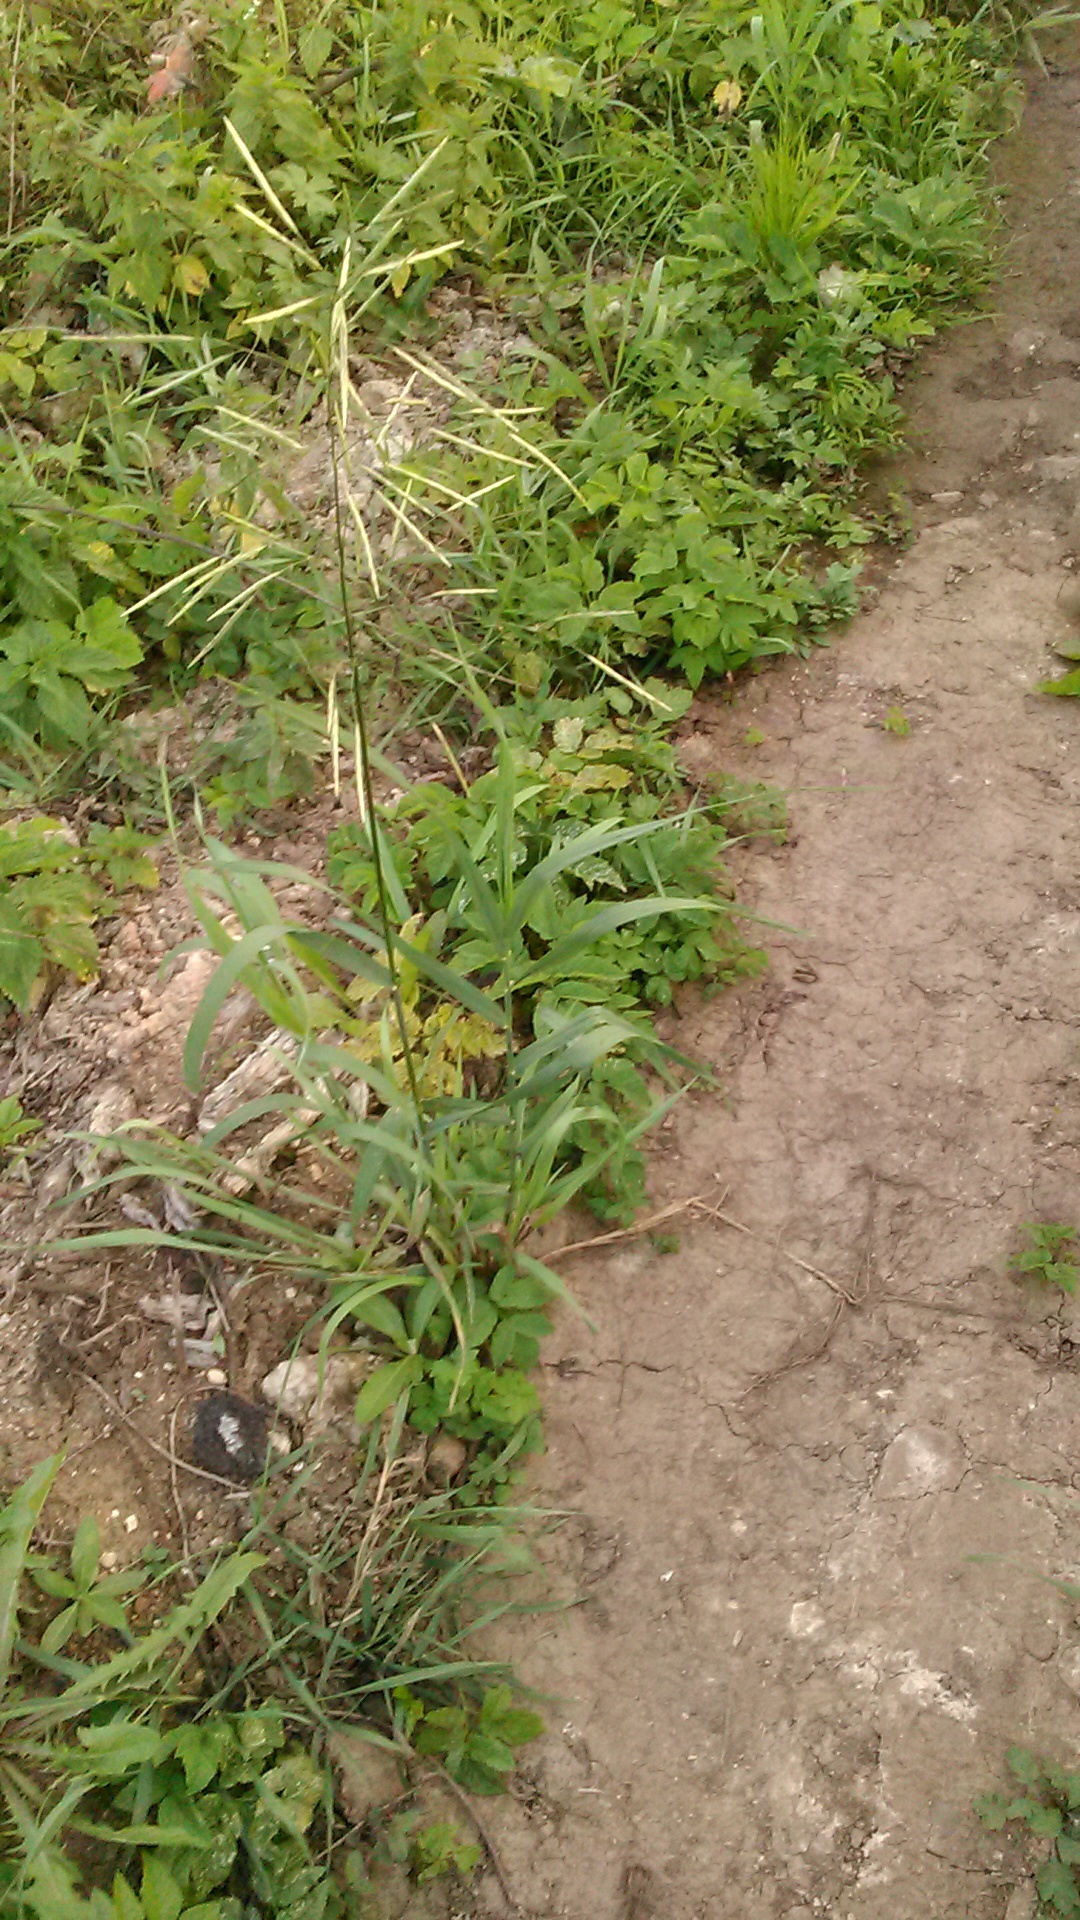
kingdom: Plantae
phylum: Tracheophyta
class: Liliopsida
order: Poales
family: Poaceae
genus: Bromus
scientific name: Bromus inermis
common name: Smooth brome
